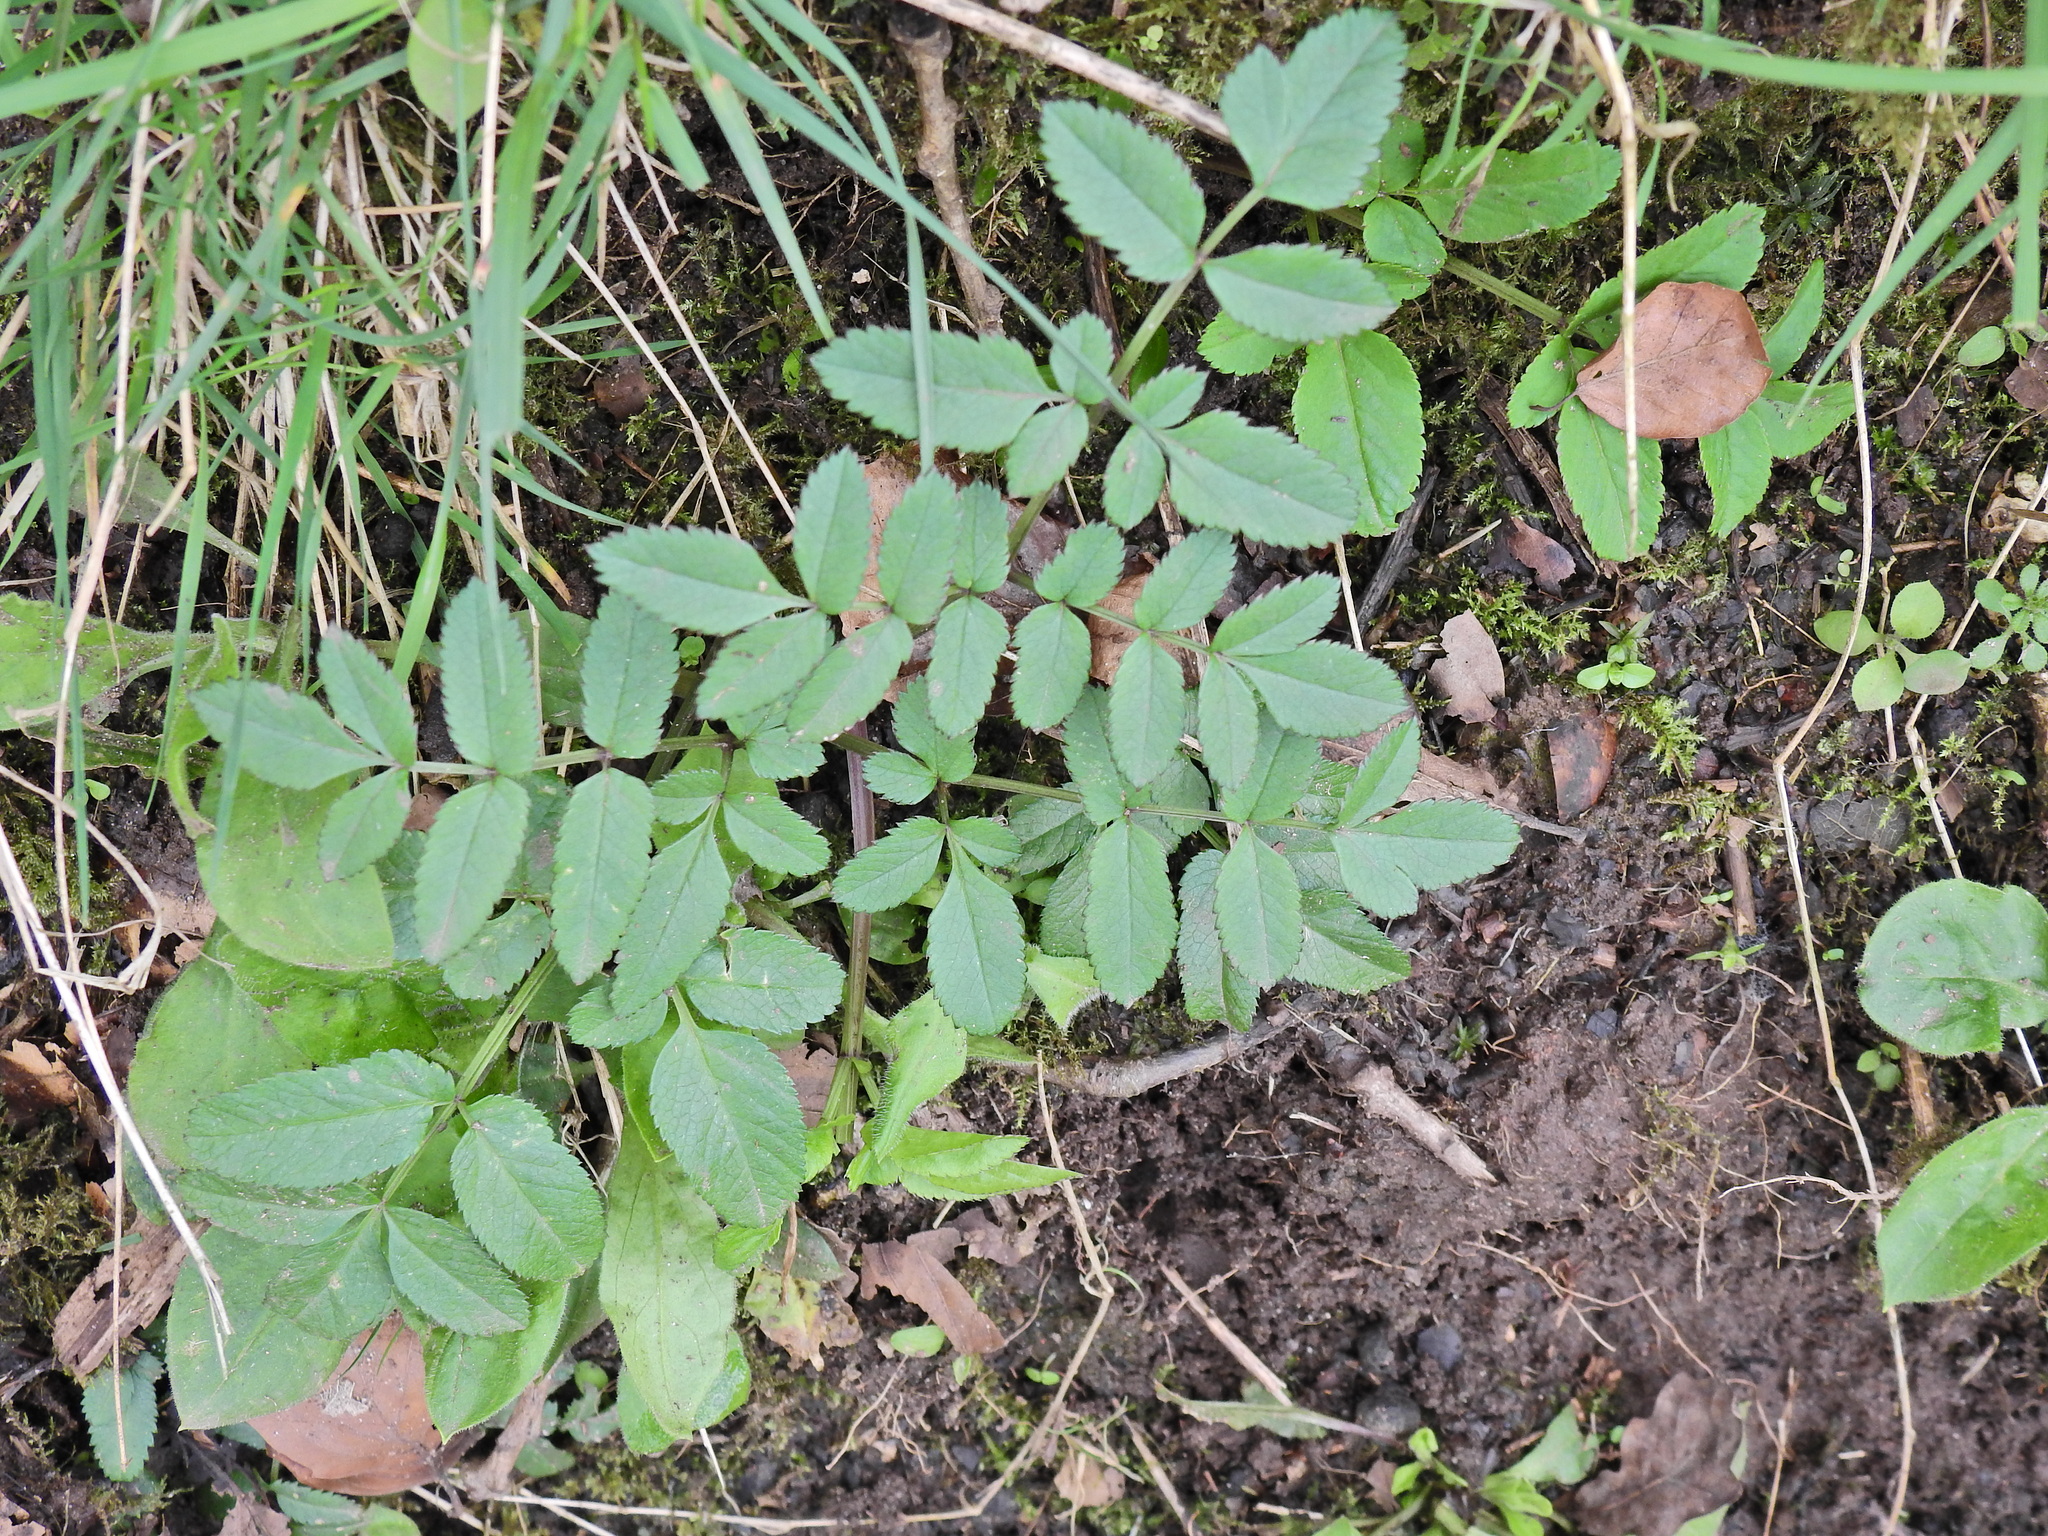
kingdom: Plantae
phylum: Tracheophyta
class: Magnoliopsida
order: Apiales
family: Apiaceae
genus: Angelica
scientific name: Angelica sylvestris
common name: Wild angelica
